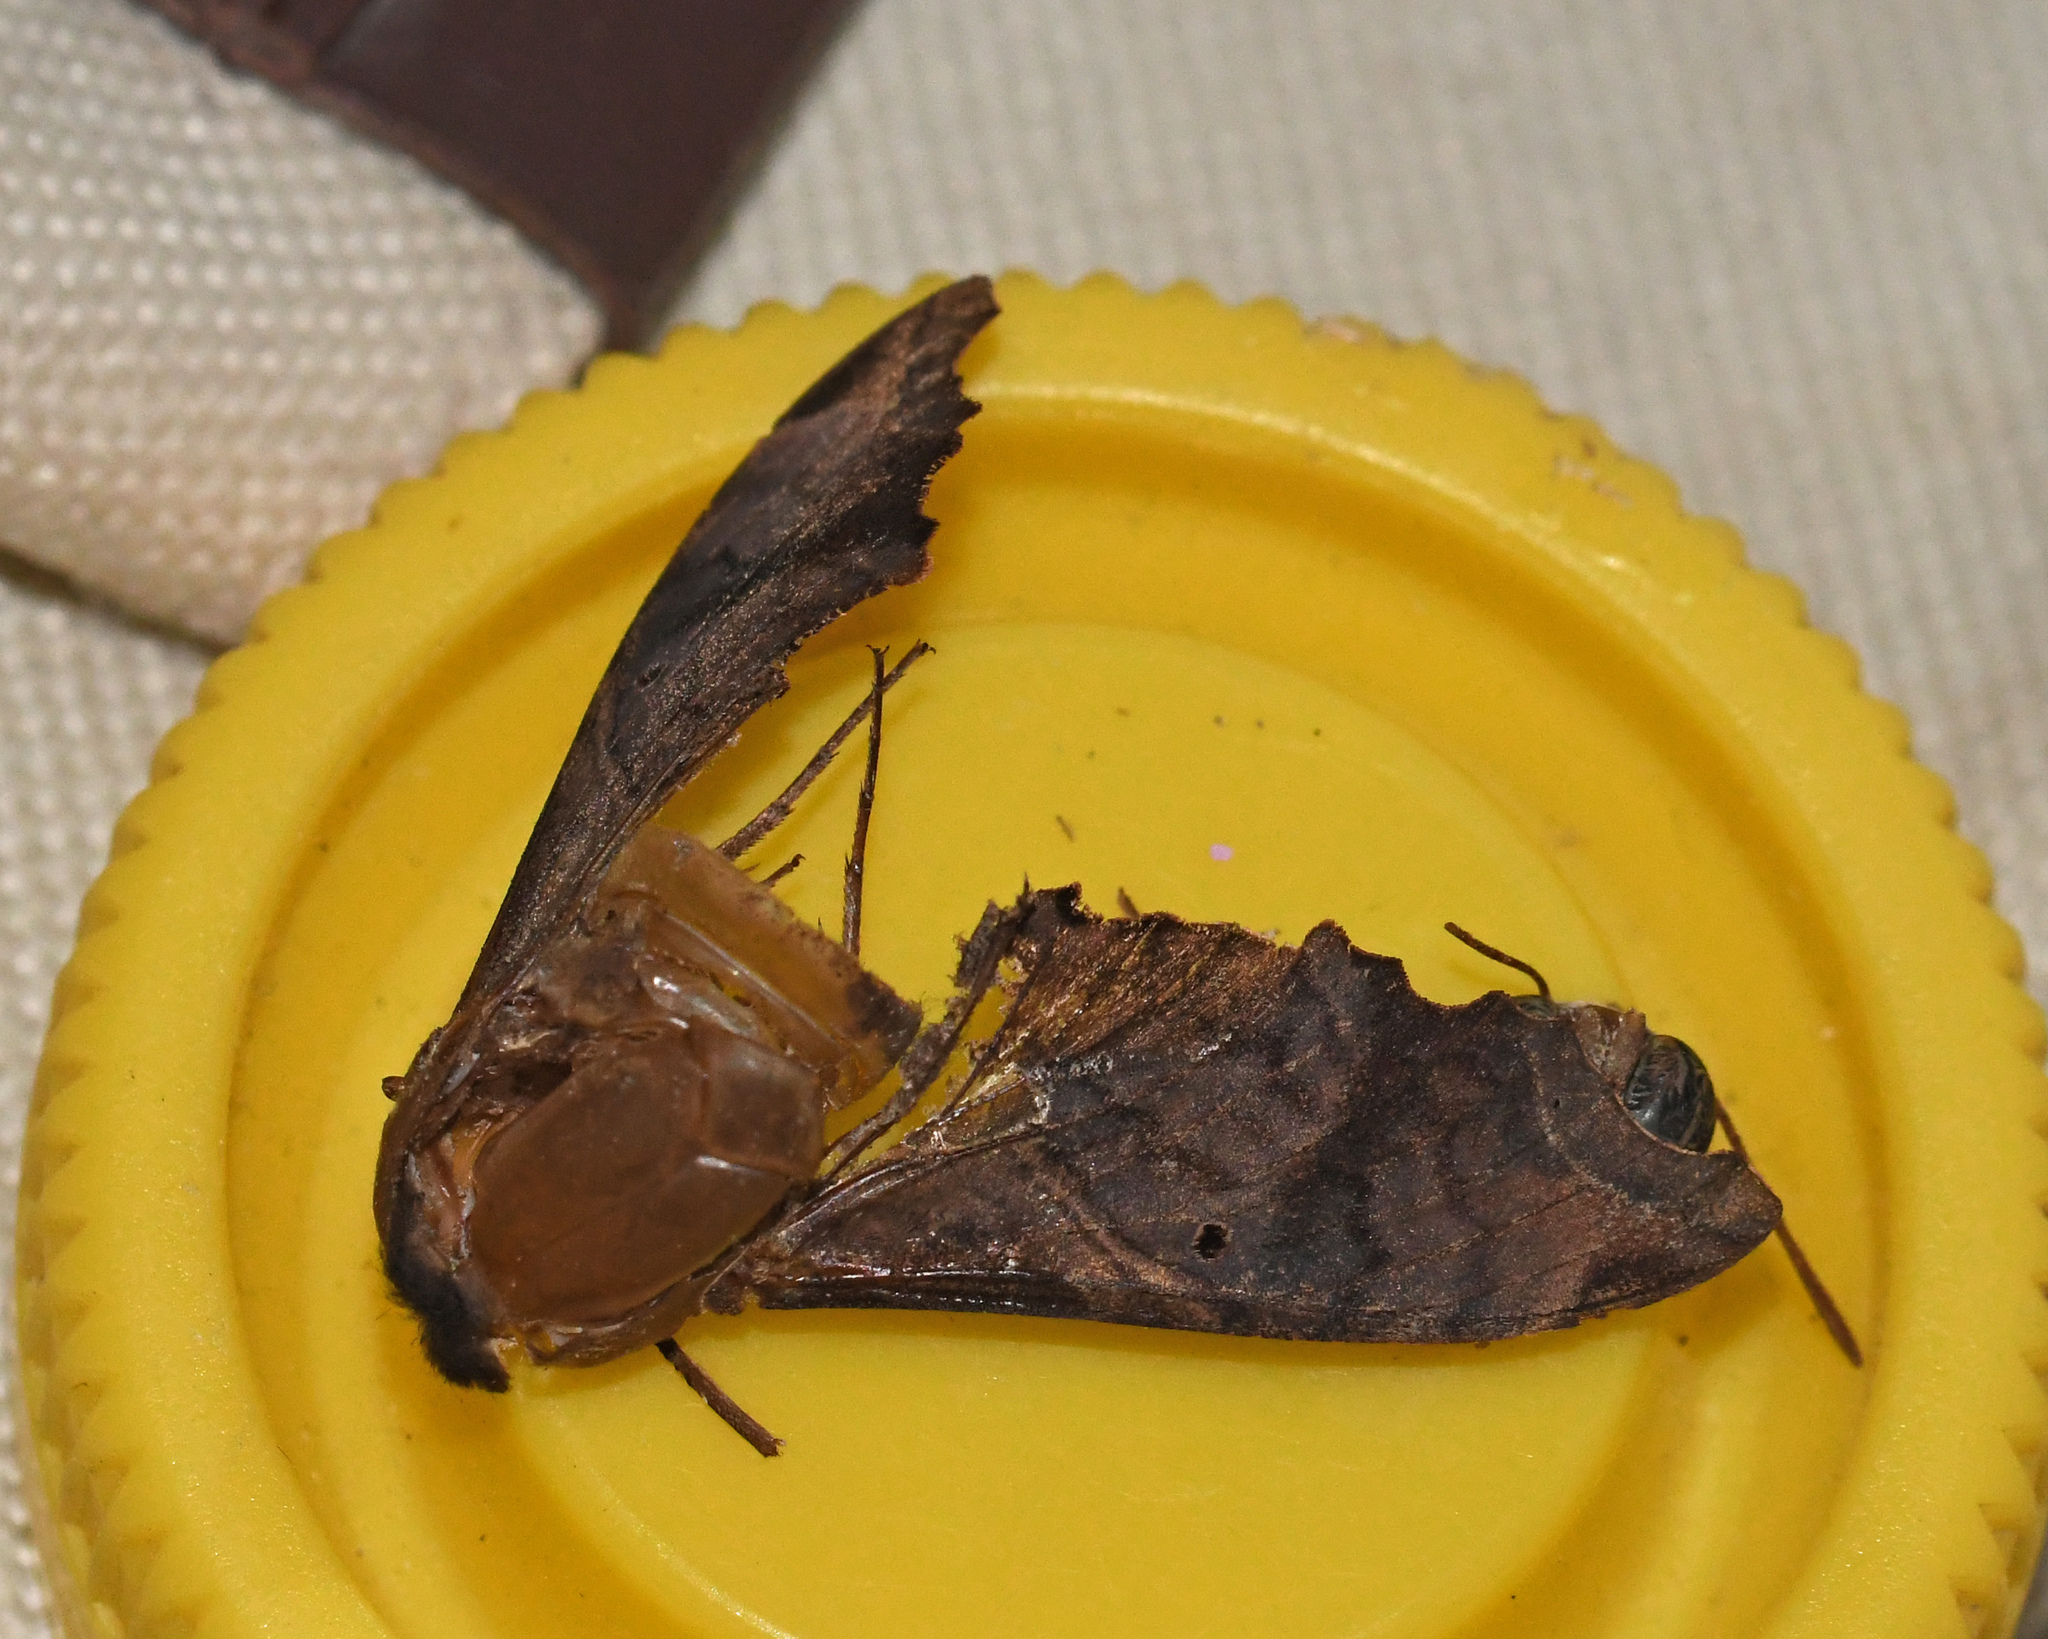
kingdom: Animalia
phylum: Arthropoda
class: Insecta
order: Lepidoptera
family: Sphingidae
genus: Enyo
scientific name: Enyo lugubris
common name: Mournful sphinx
